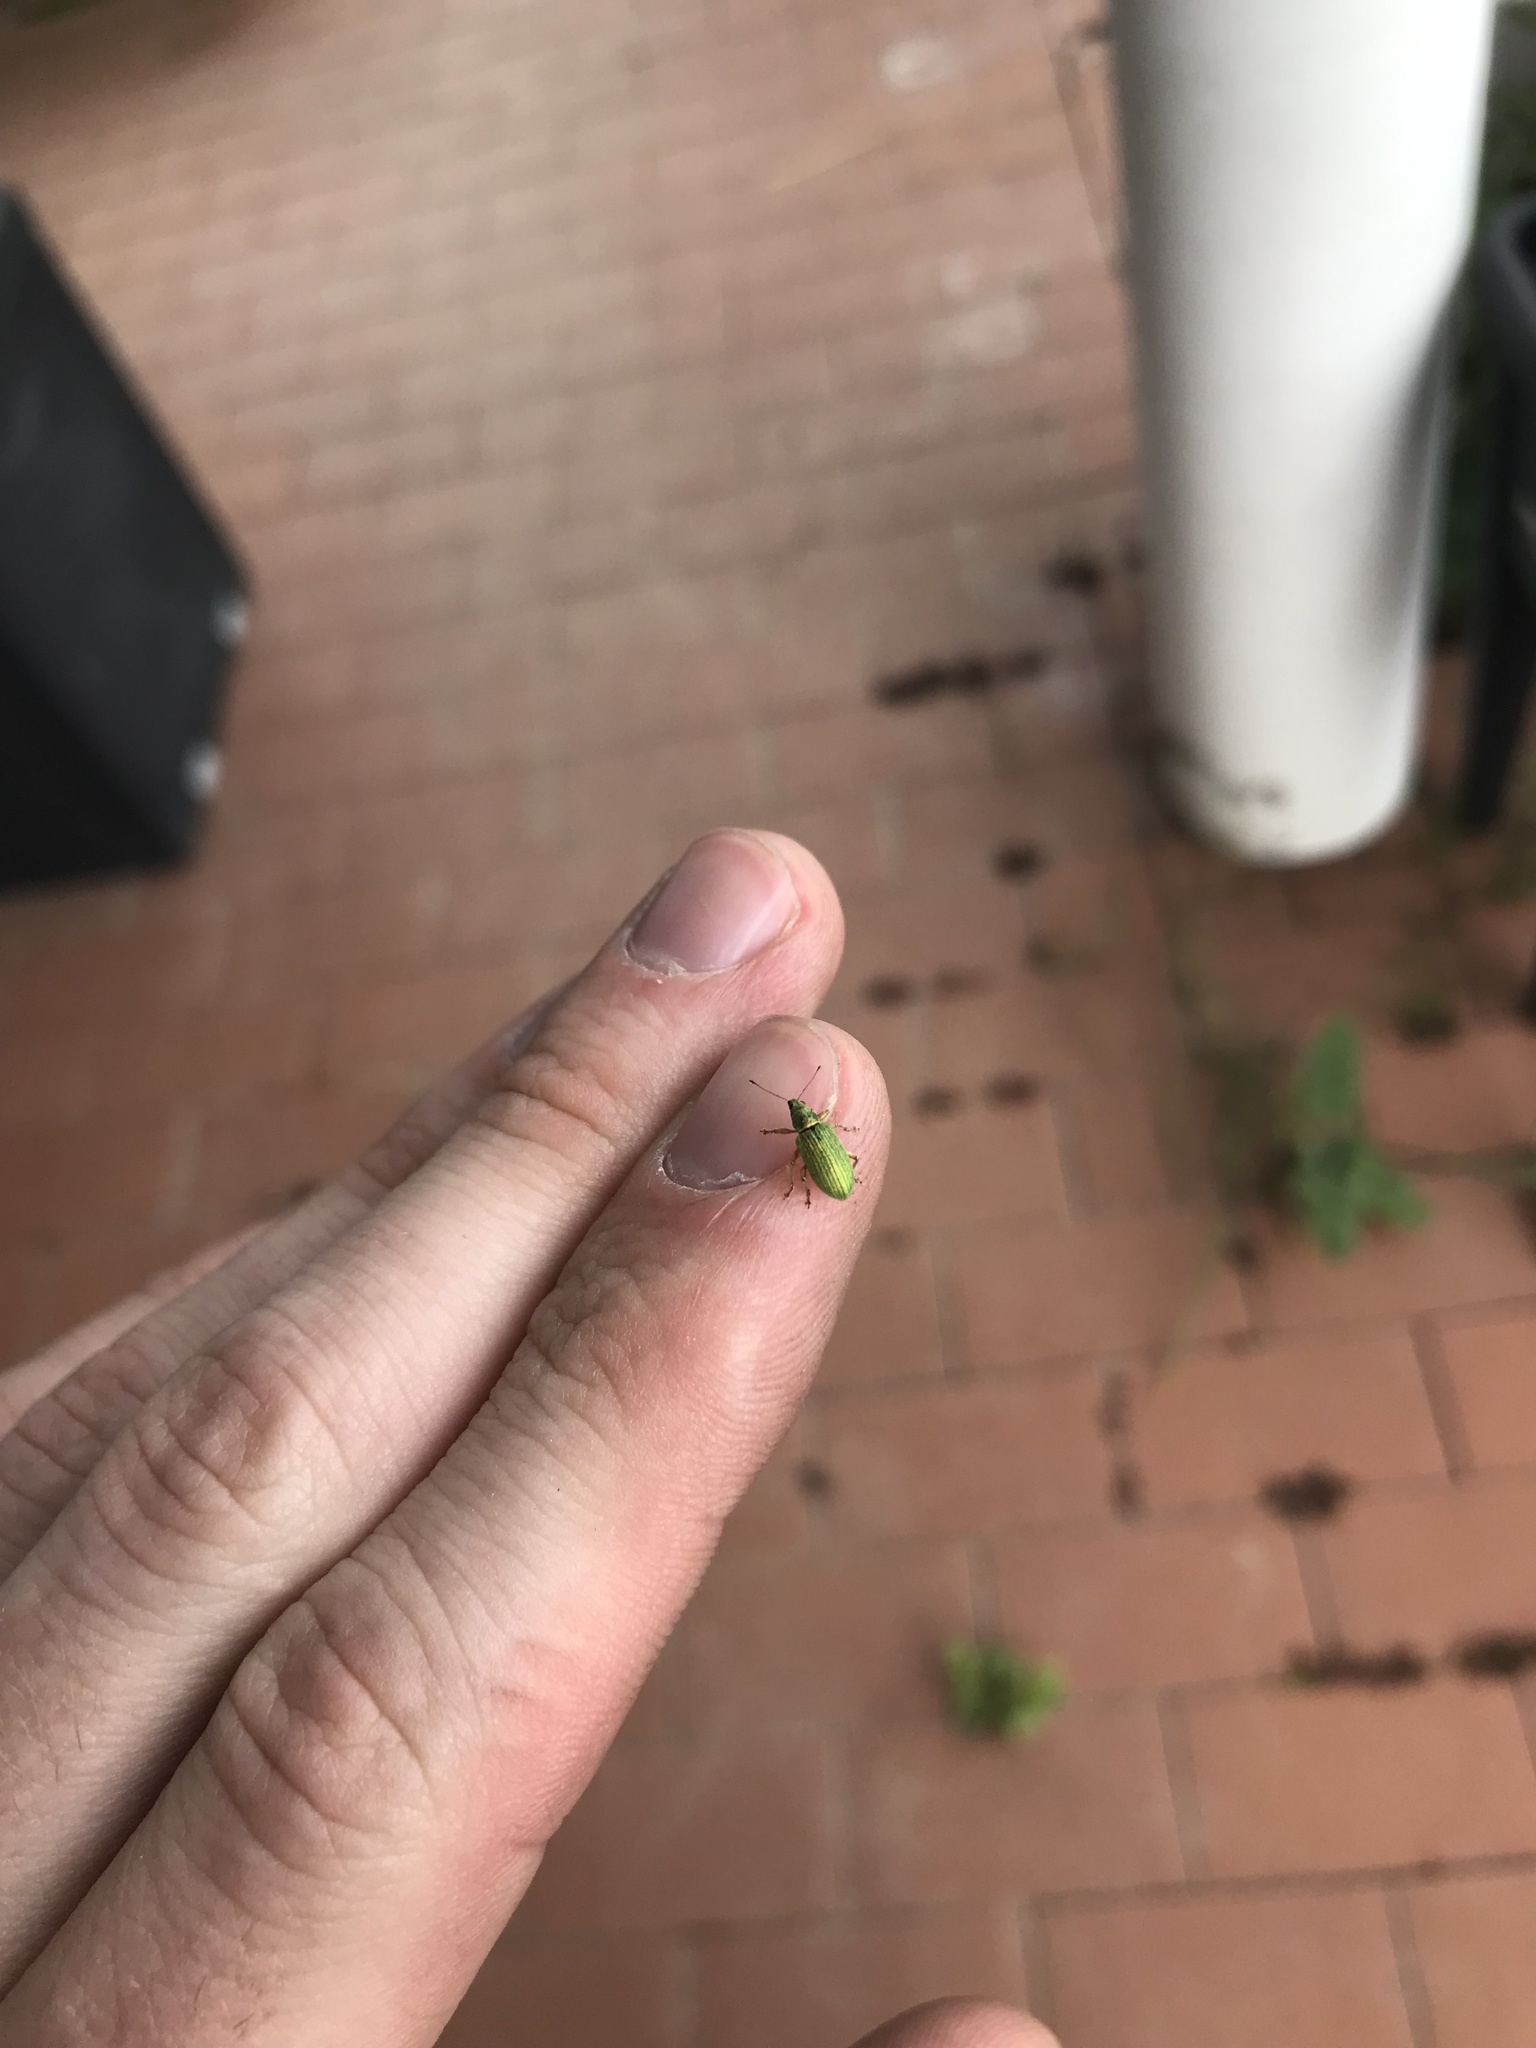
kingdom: Animalia
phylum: Arthropoda
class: Insecta
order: Coleoptera
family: Curculionidae
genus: Polydrusus
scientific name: Polydrusus formosus
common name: Weevil
